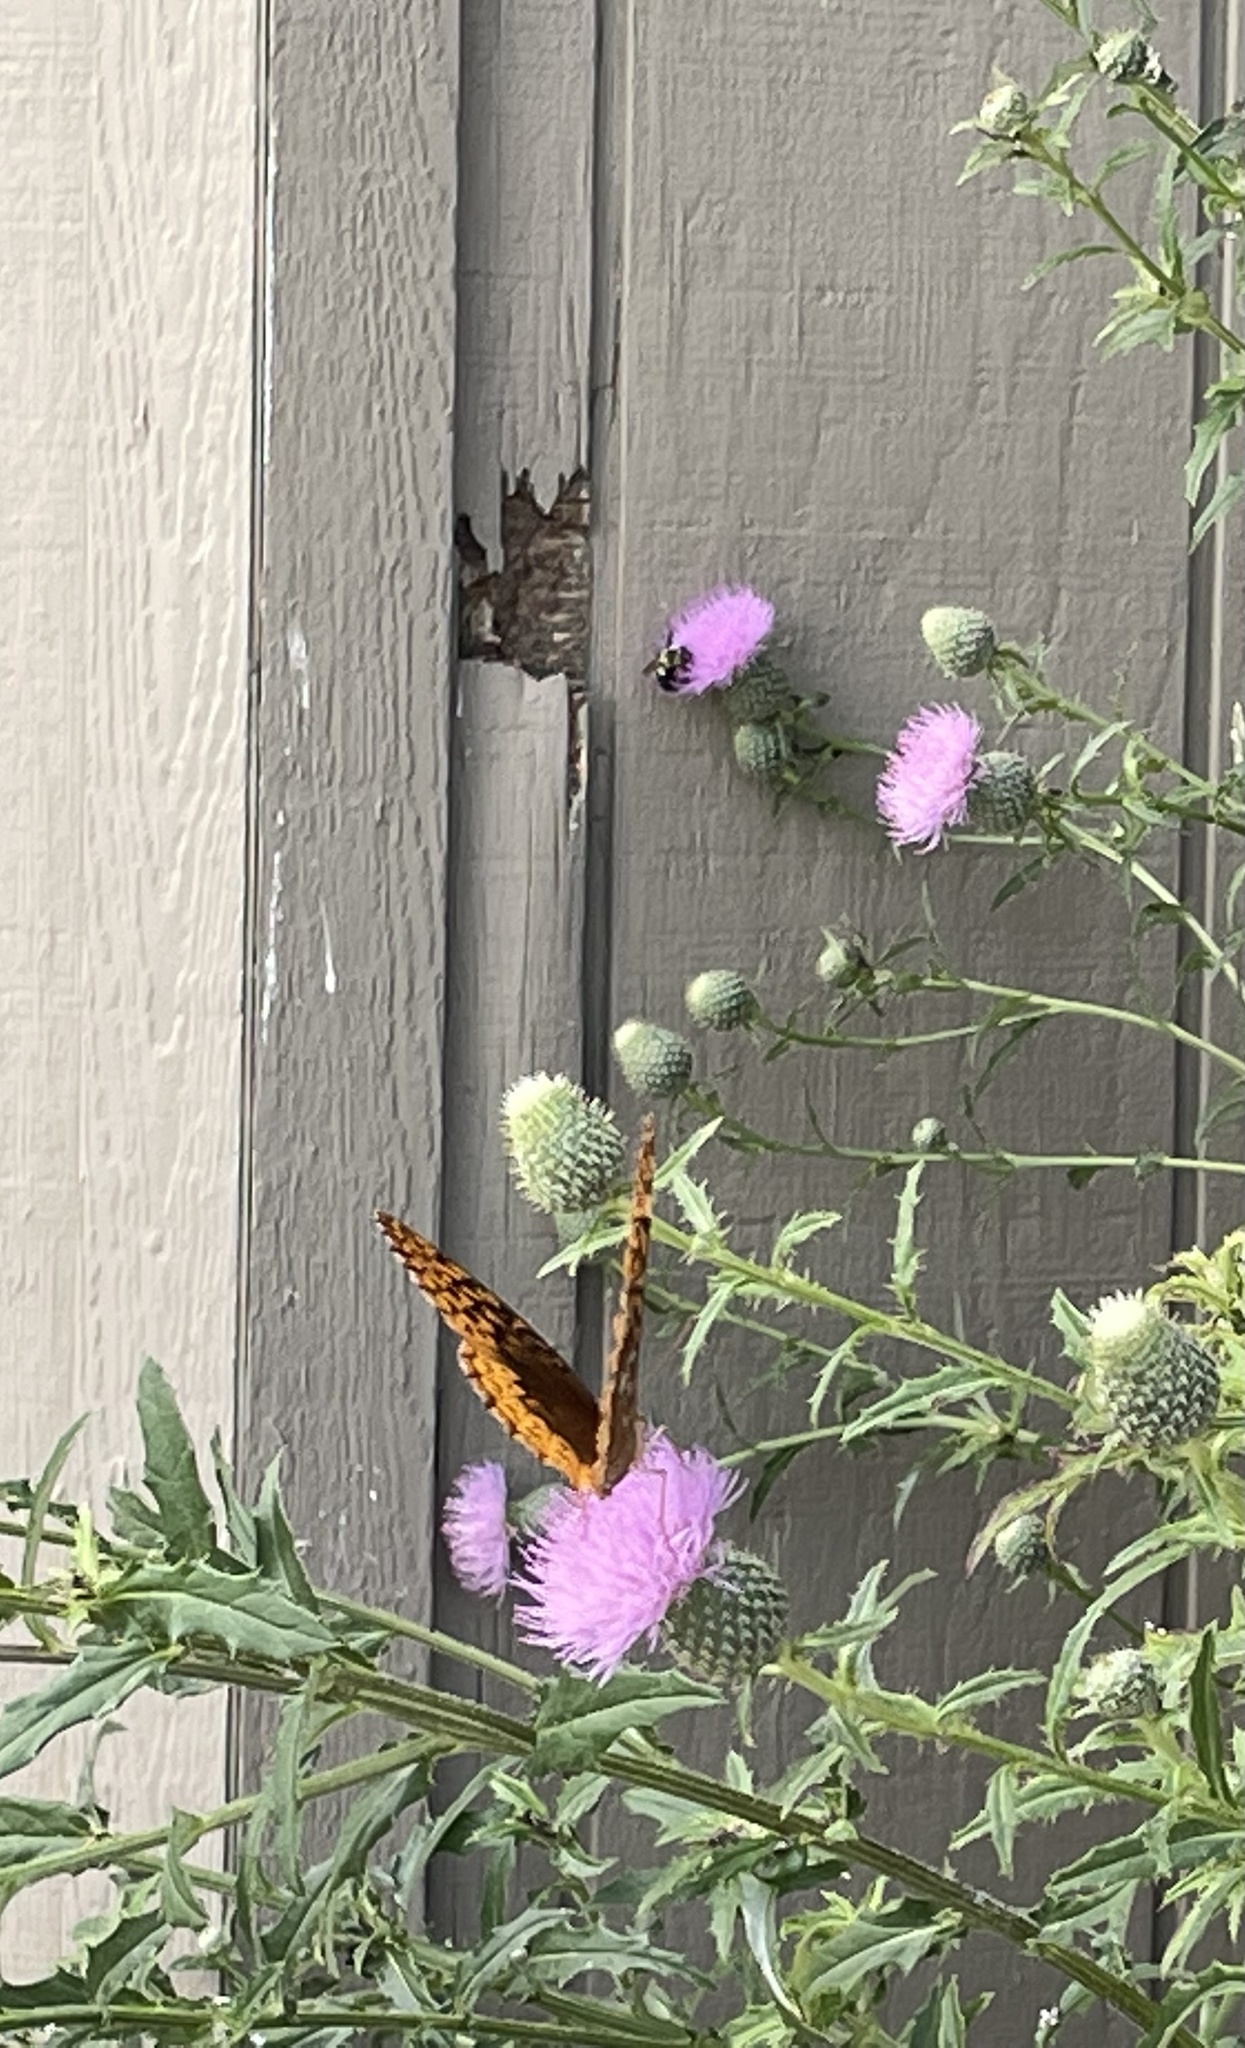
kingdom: Animalia
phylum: Arthropoda
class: Insecta
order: Lepidoptera
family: Nymphalidae
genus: Speyeria
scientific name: Speyeria cybele
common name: Great spangled fritillary
